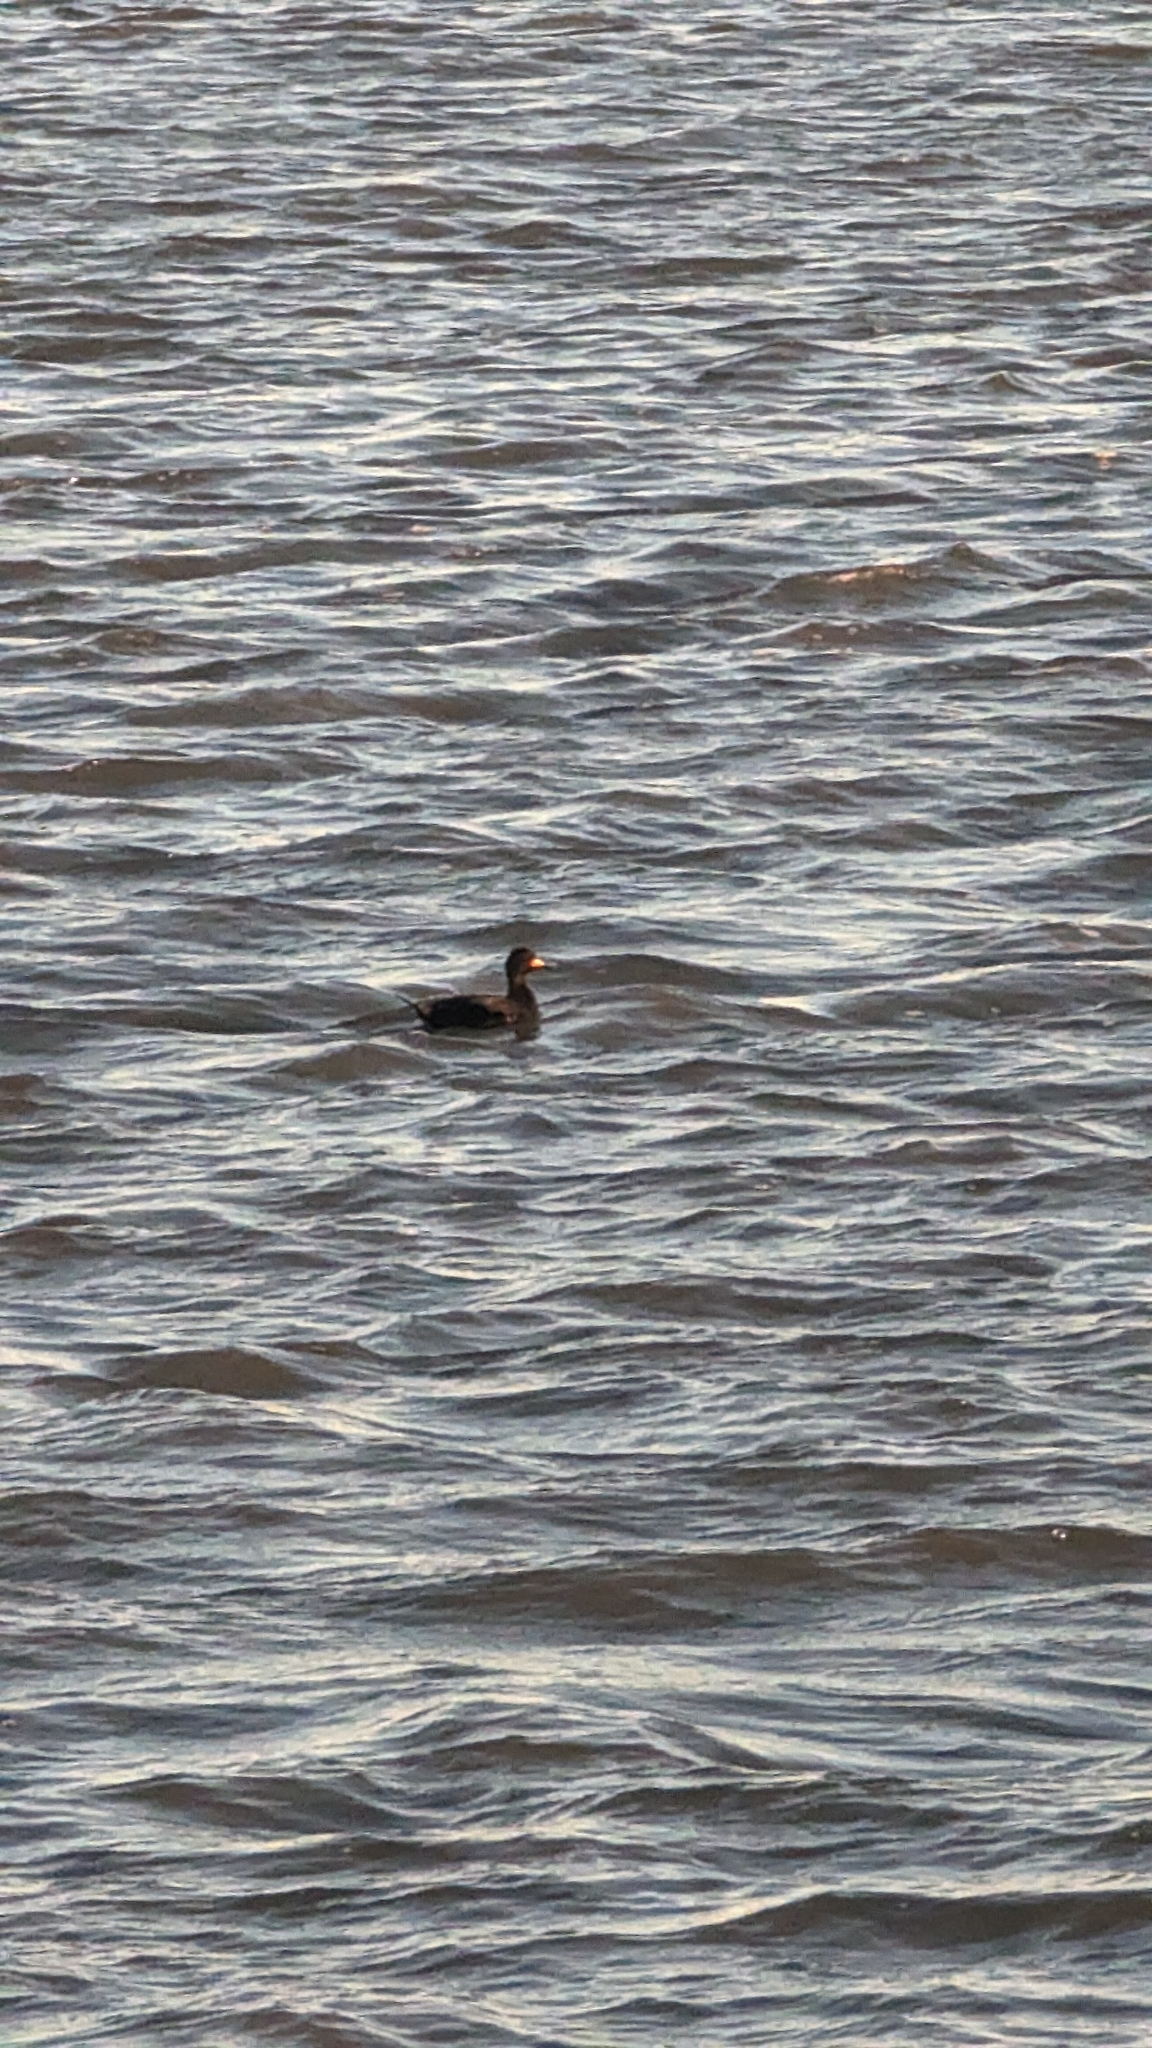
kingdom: Animalia
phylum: Chordata
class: Aves
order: Anseriformes
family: Anatidae
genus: Melanitta
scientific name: Melanitta americana
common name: Black scoter
